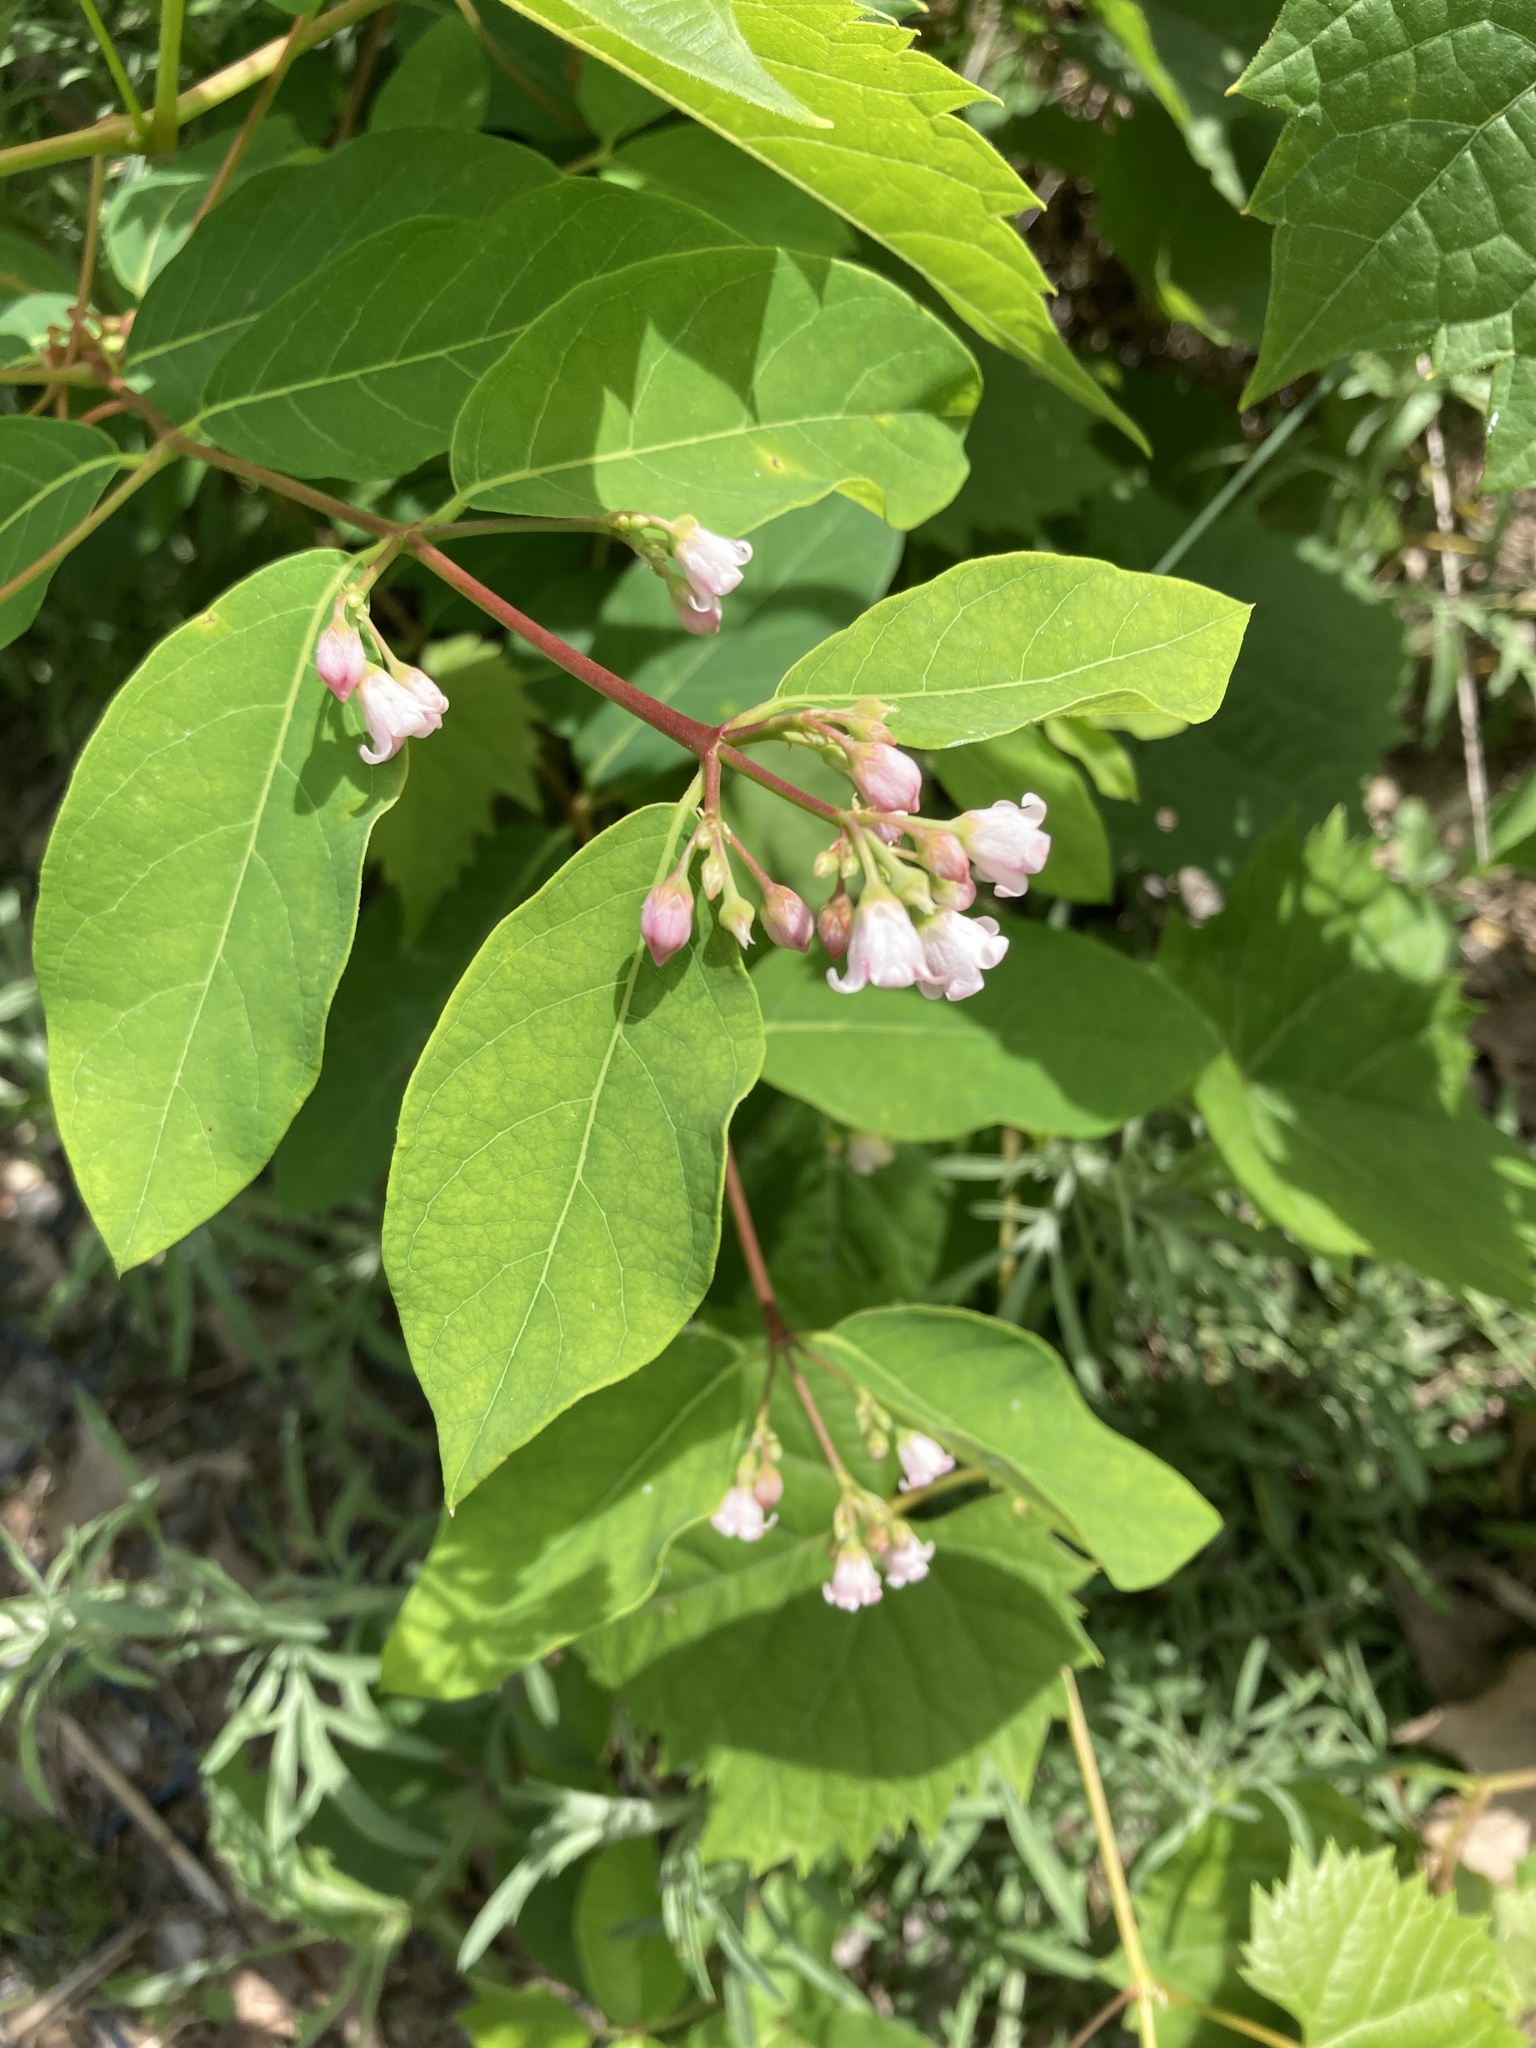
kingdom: Plantae
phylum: Tracheophyta
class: Magnoliopsida
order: Gentianales
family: Apocynaceae
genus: Apocynum
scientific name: Apocynum androsaemifolium
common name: Spreading dogbane
